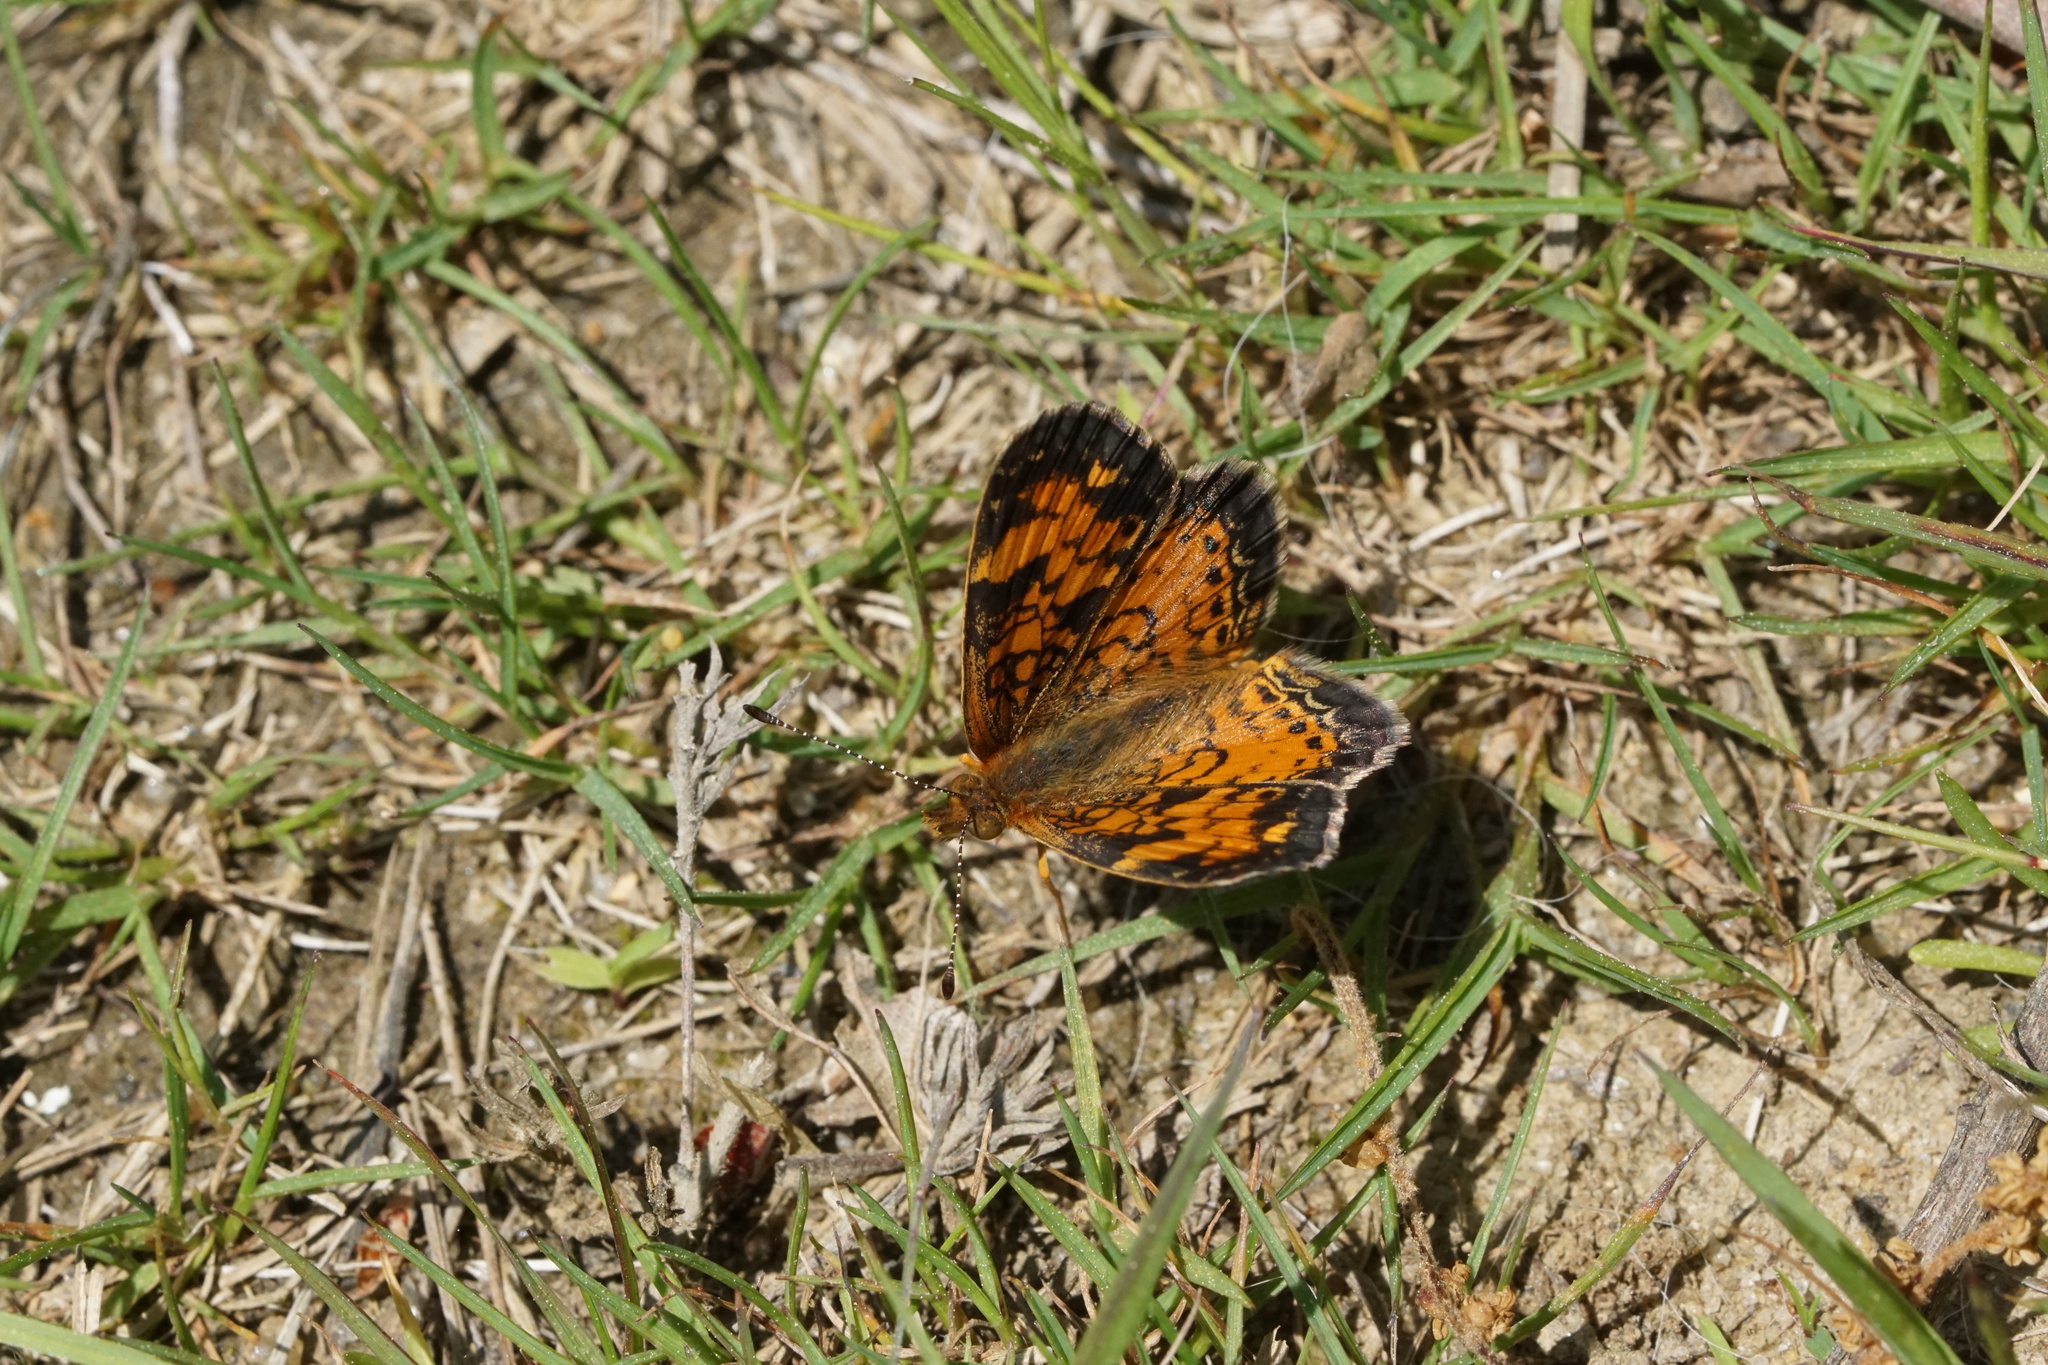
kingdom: Animalia
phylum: Arthropoda
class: Insecta
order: Lepidoptera
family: Nymphalidae
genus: Phyciodes
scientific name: Phyciodes tharos
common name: Pearl crescent
